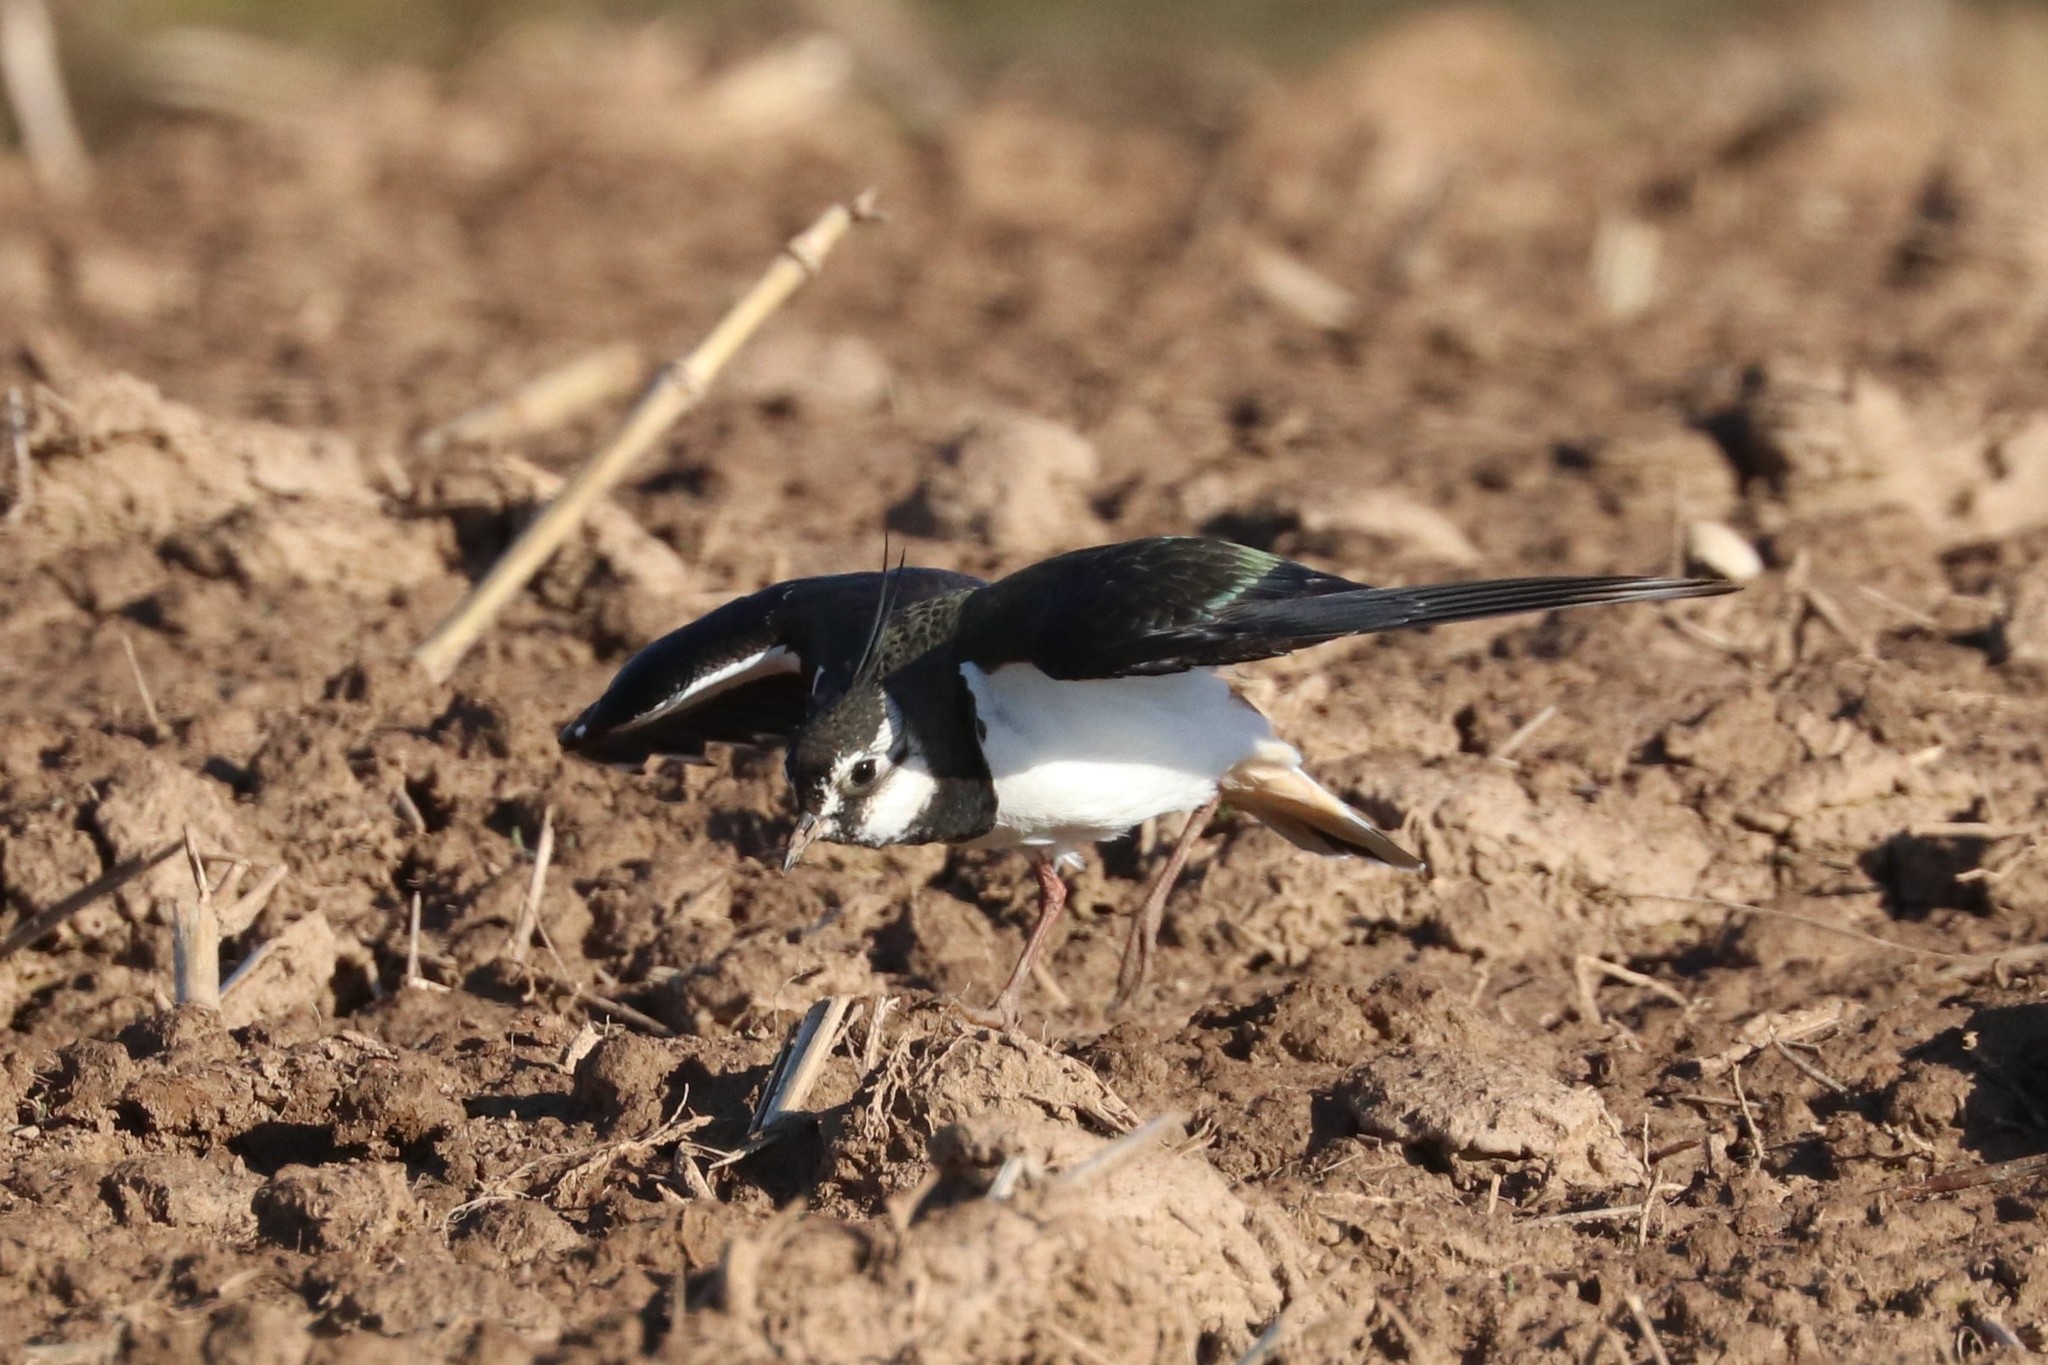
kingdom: Animalia
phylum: Chordata
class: Aves
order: Charadriiformes
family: Charadriidae
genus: Vanellus
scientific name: Vanellus vanellus
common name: Northern lapwing
